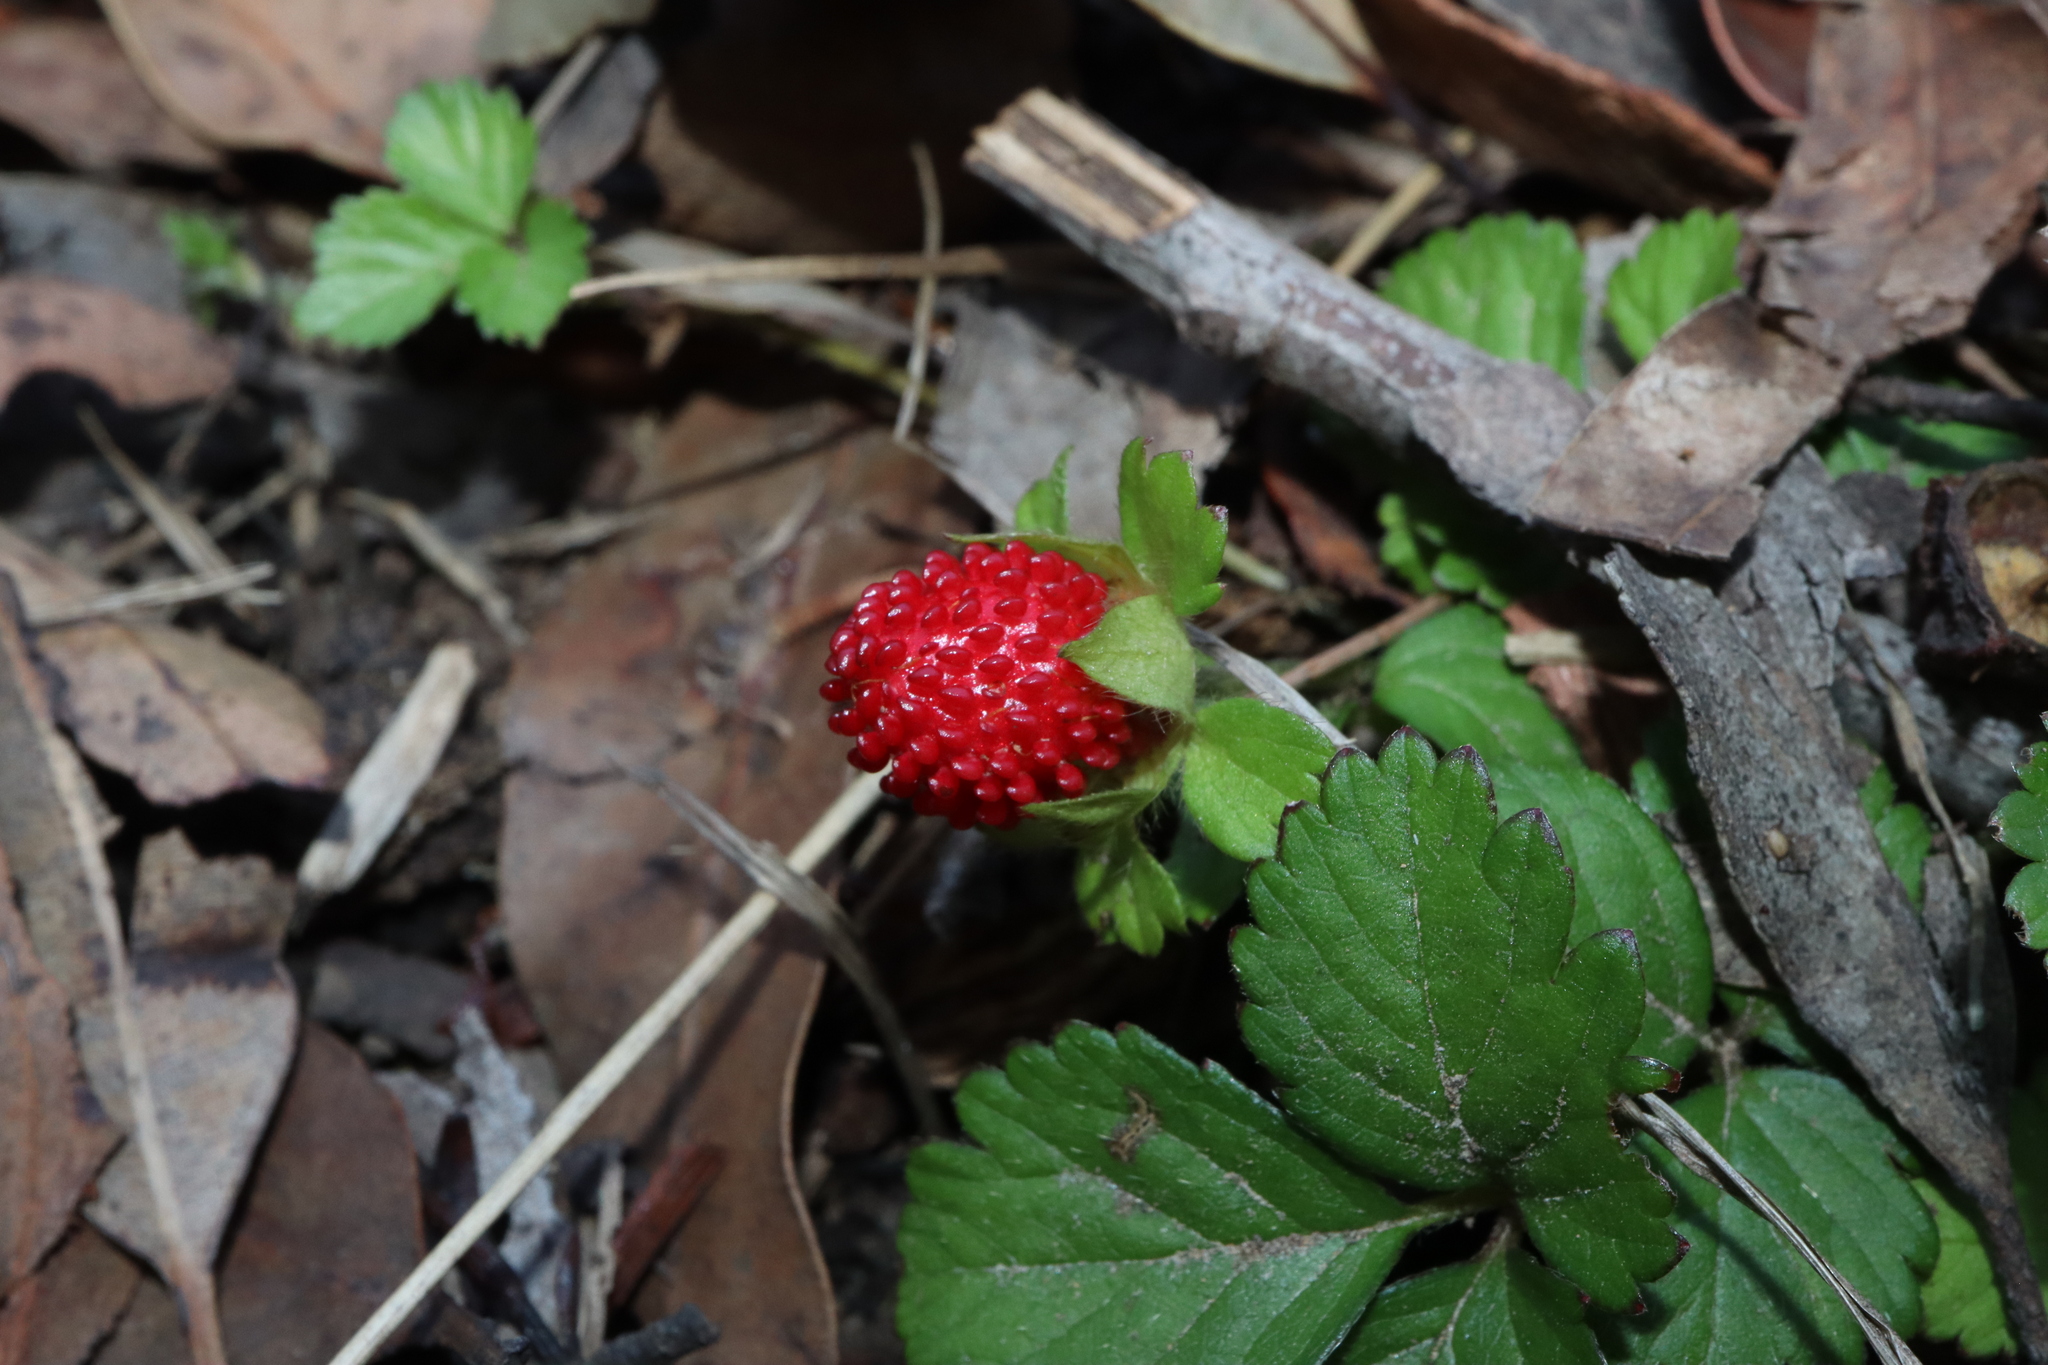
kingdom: Plantae
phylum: Tracheophyta
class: Magnoliopsida
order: Rosales
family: Rosaceae
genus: Potentilla
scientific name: Potentilla indica
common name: Yellow-flowered strawberry
